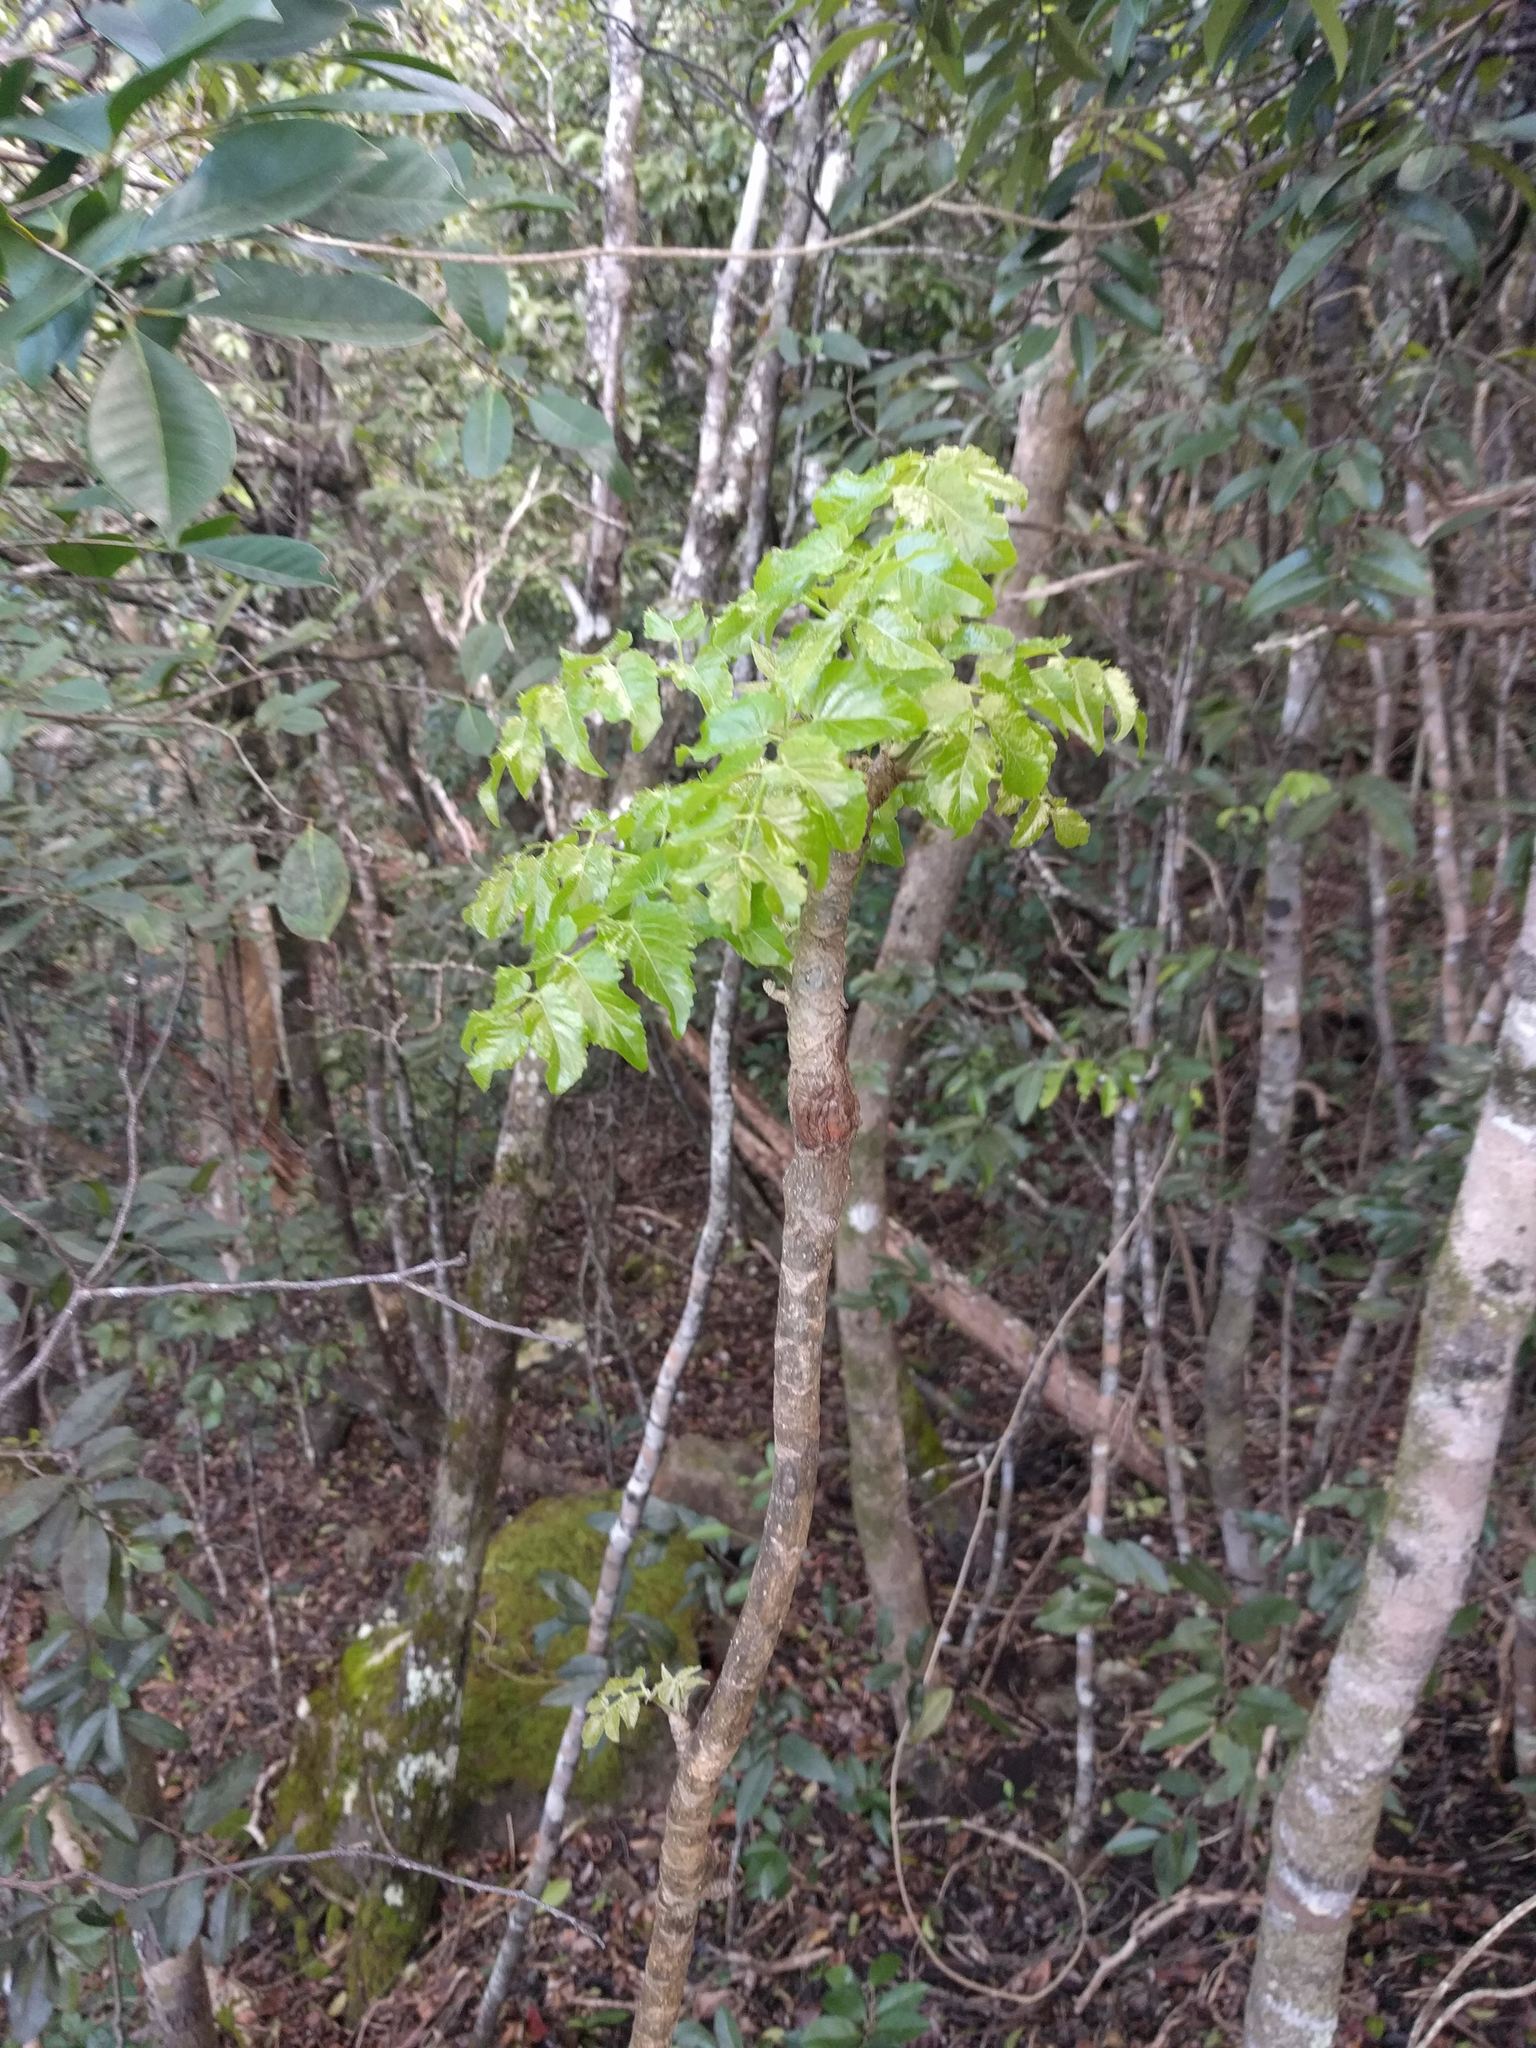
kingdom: Plantae
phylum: Tracheophyta
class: Magnoliopsida
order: Apiales
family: Araliaceae
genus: Polyscias
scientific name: Polyscias sandwicensis
